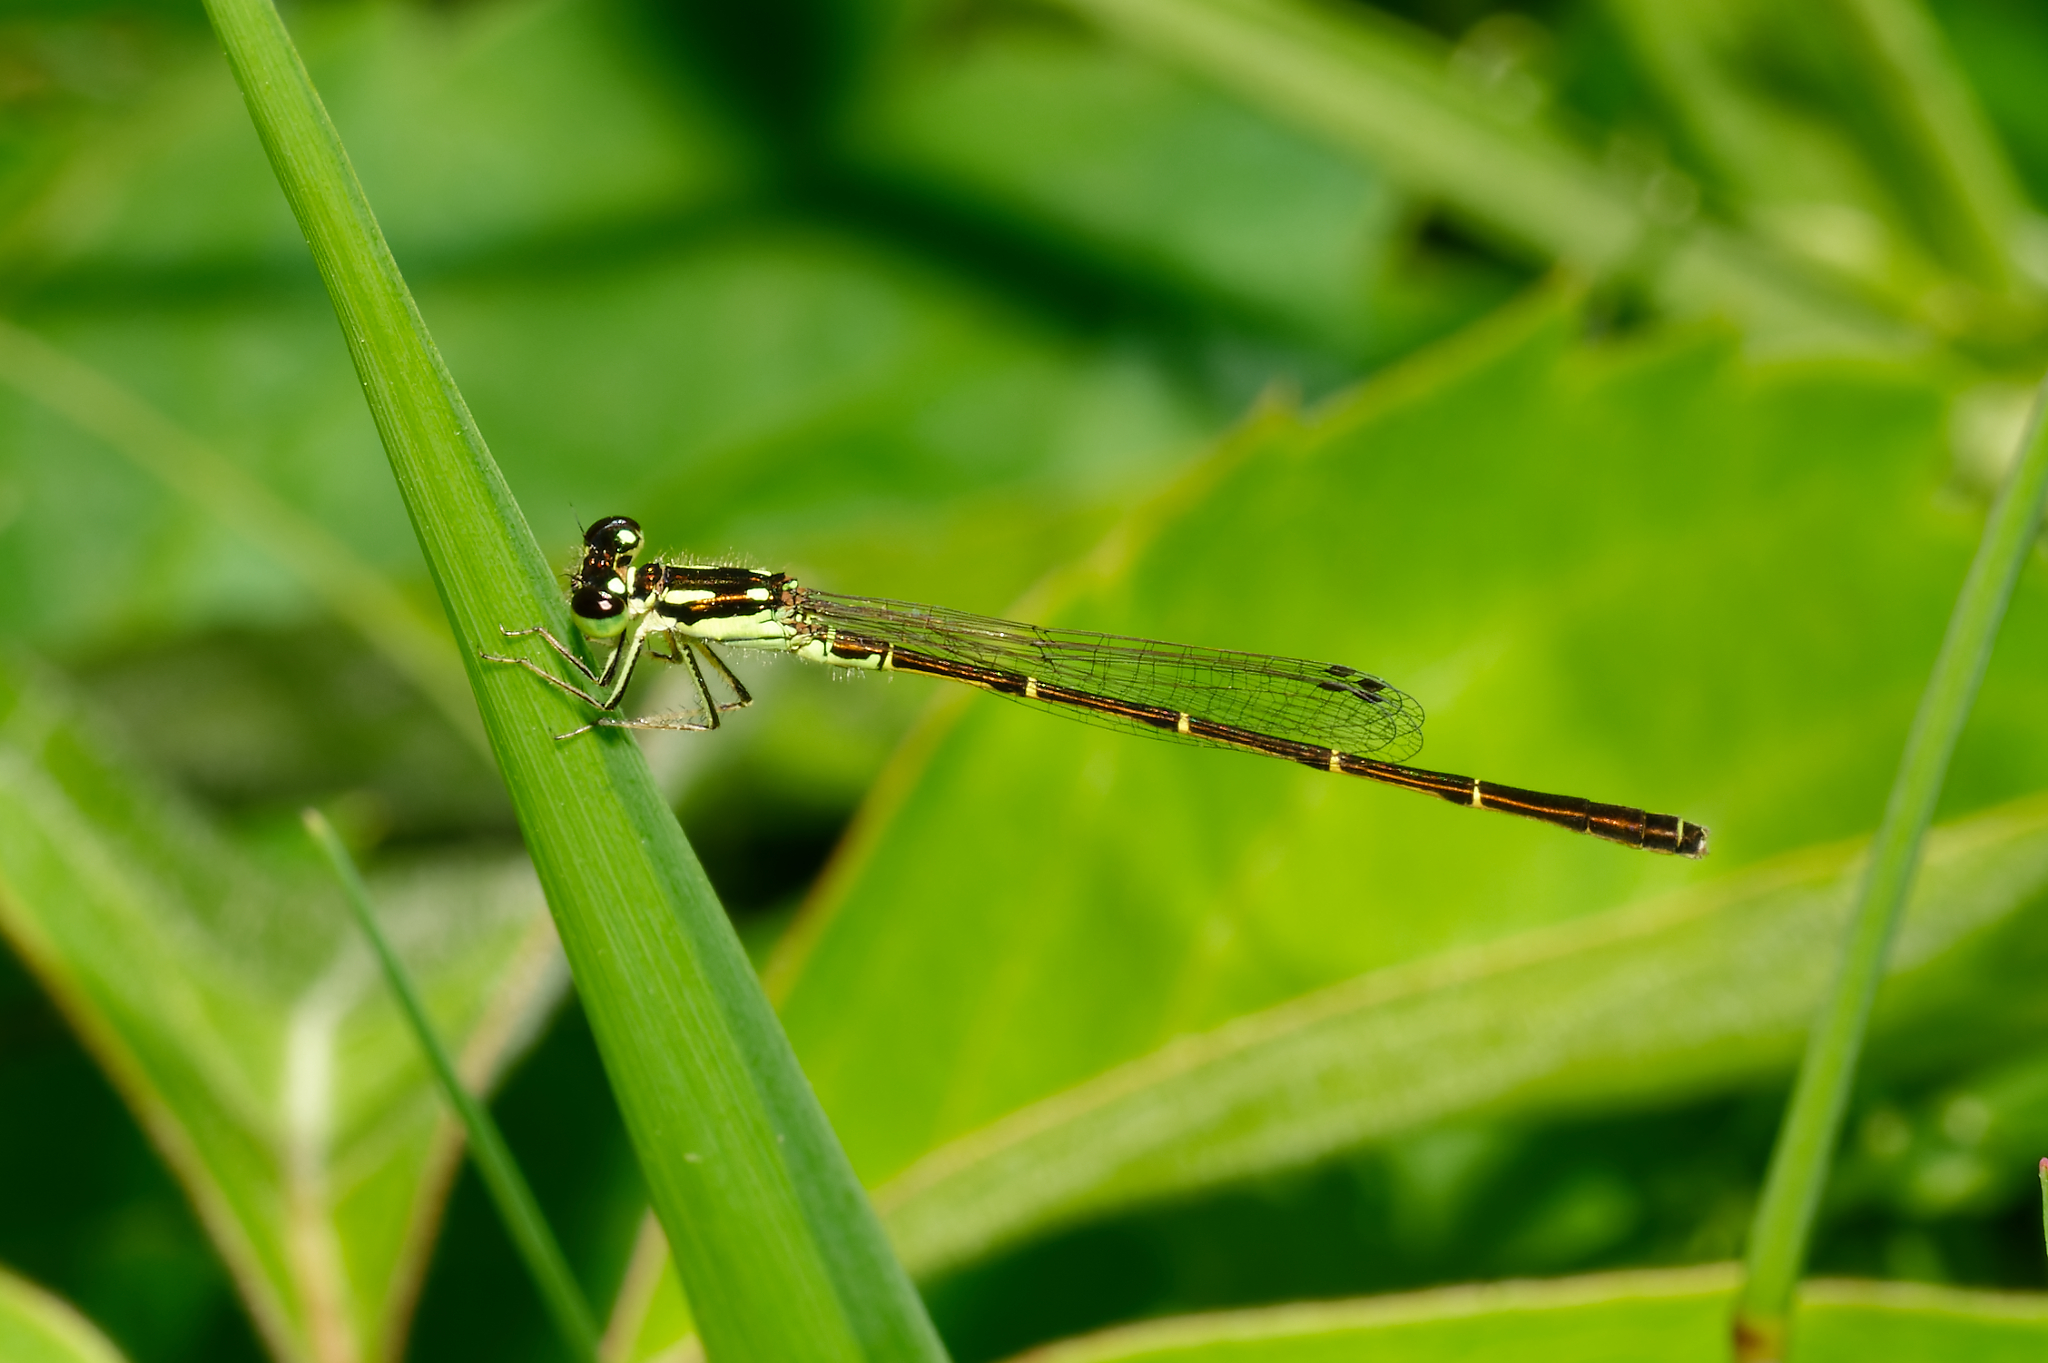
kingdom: Animalia
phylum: Arthropoda
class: Insecta
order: Odonata
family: Coenagrionidae
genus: Ischnura
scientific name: Ischnura posita
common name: Fragile forktail
